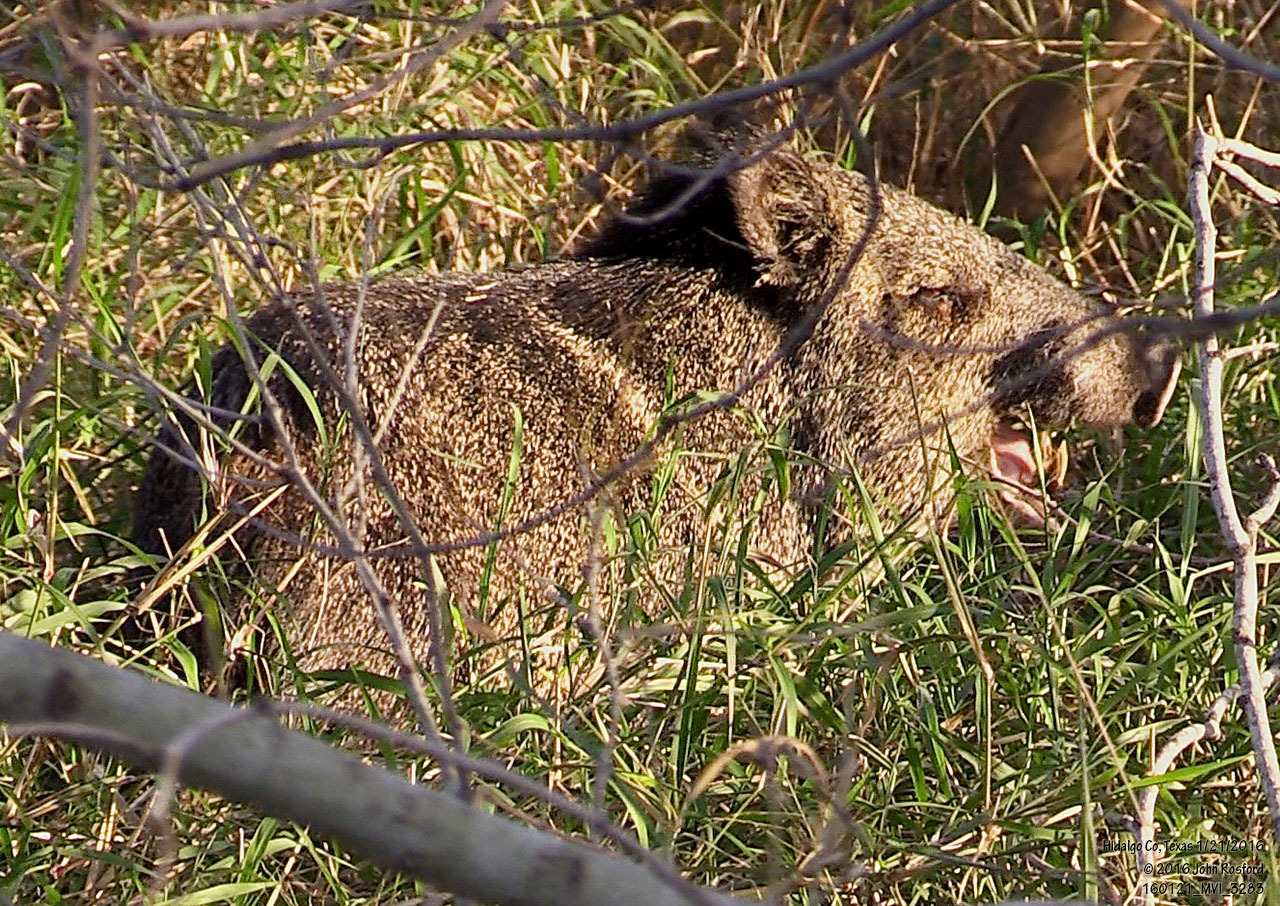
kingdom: Animalia
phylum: Chordata
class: Mammalia
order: Artiodactyla
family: Tayassuidae
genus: Pecari
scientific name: Pecari tajacu
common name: Collared peccary
